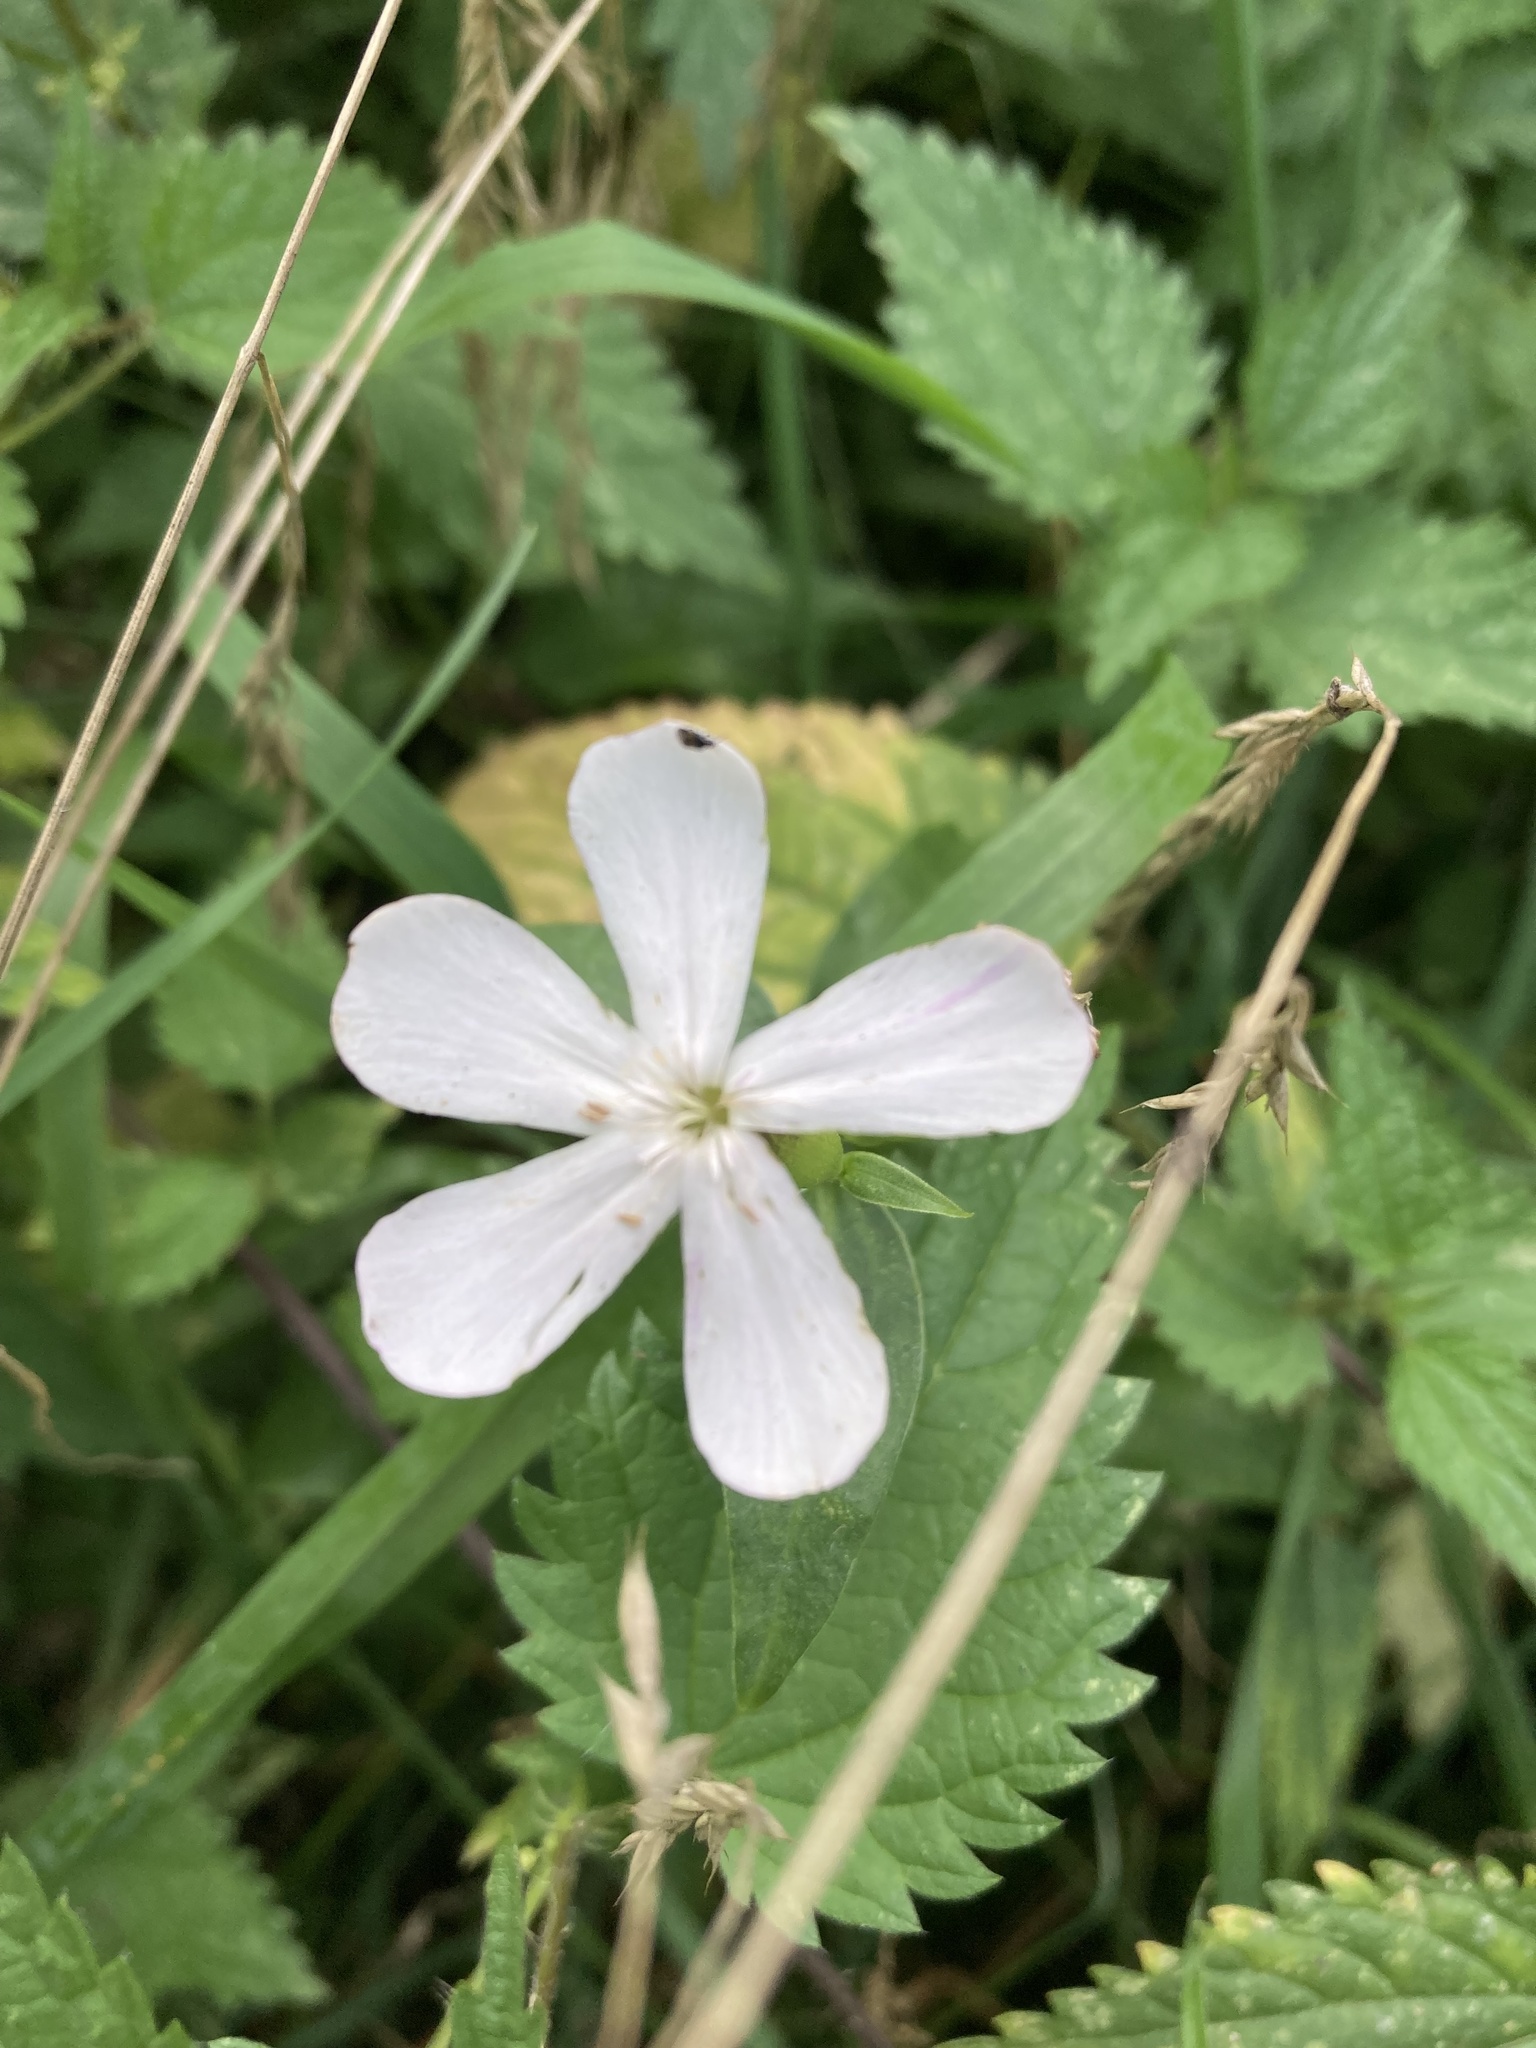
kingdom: Plantae
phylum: Tracheophyta
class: Magnoliopsida
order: Caryophyllales
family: Caryophyllaceae
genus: Saponaria
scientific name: Saponaria officinalis
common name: Soapwort
